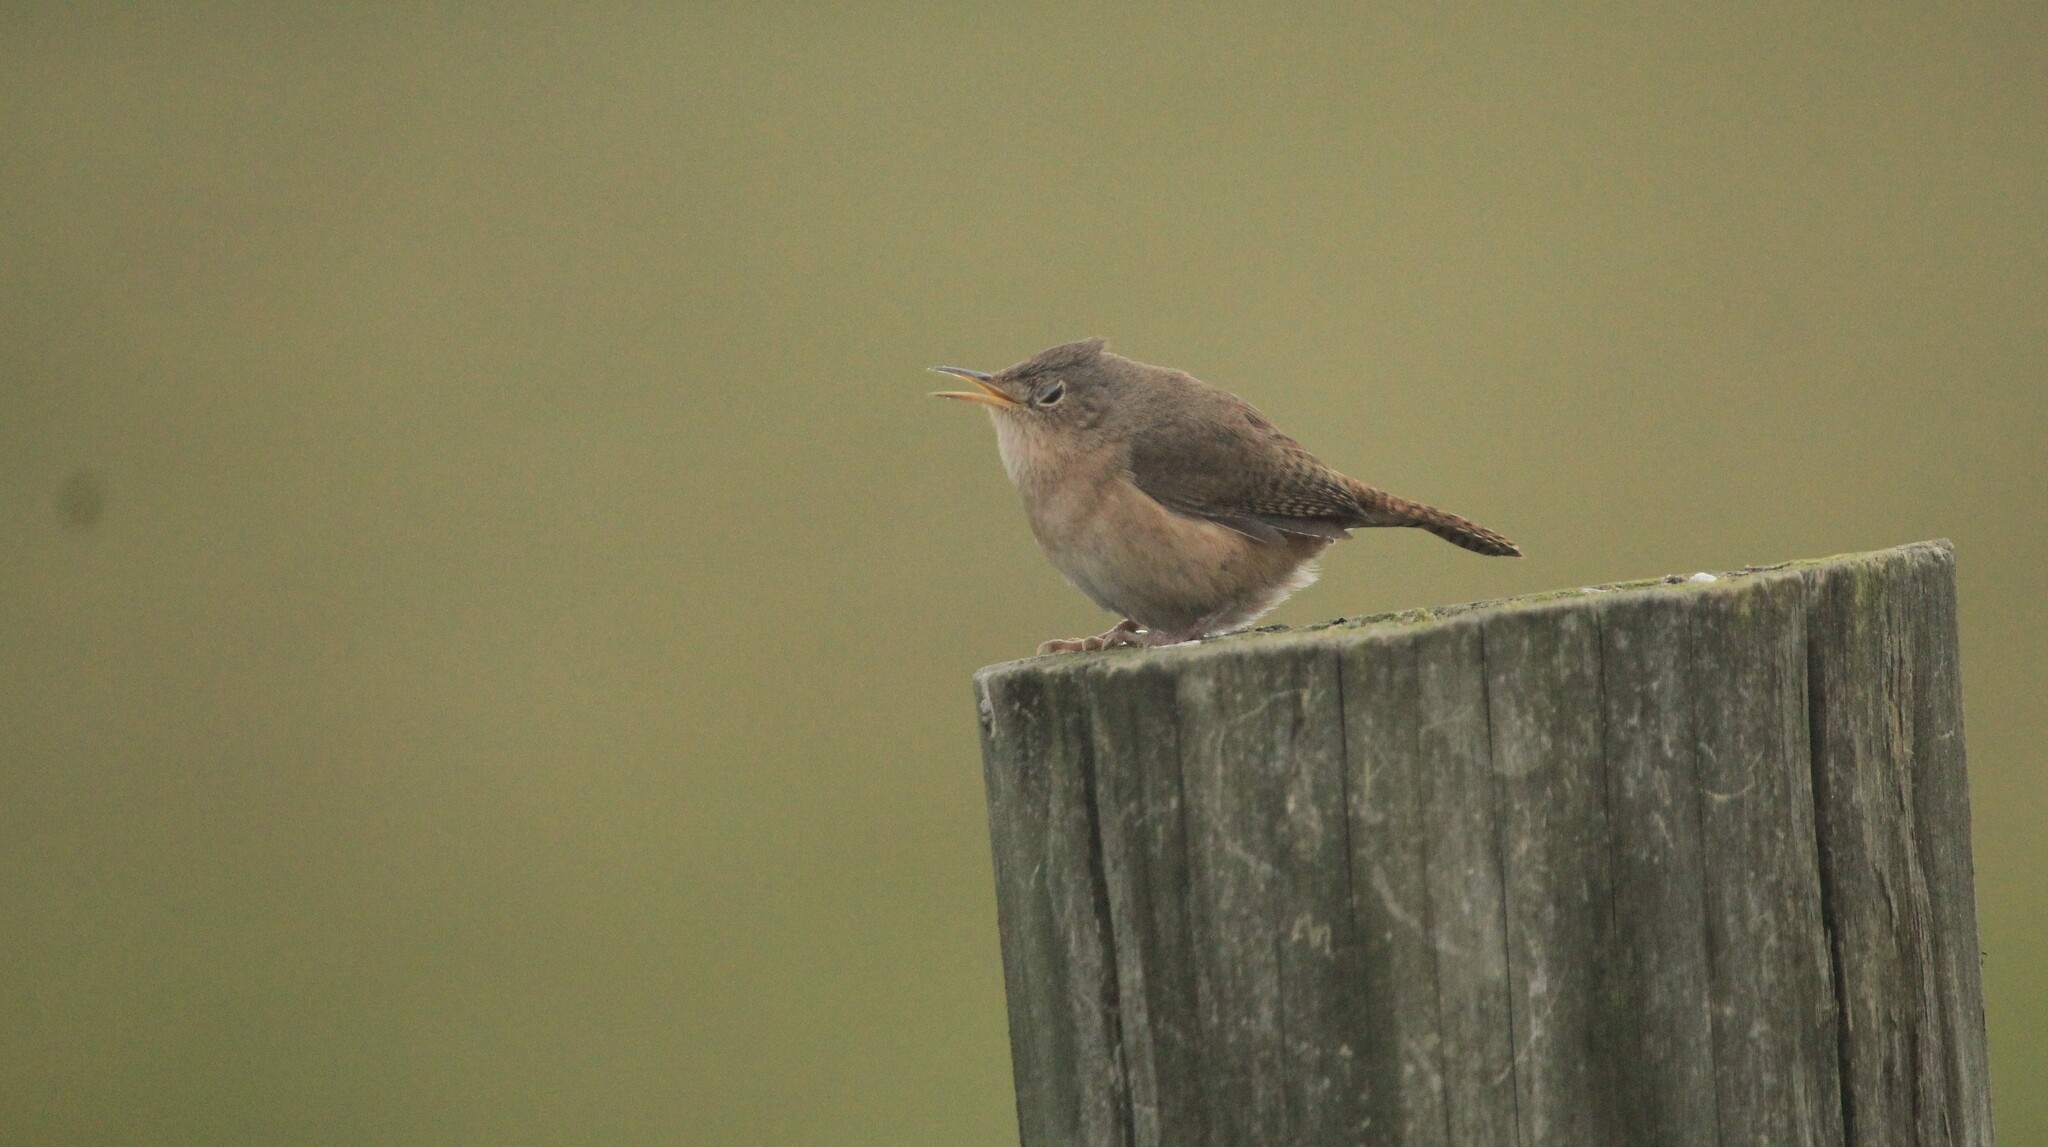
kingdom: Animalia
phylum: Chordata
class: Aves
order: Passeriformes
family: Troglodytidae
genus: Troglodytes
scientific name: Troglodytes aedon
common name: House wren
